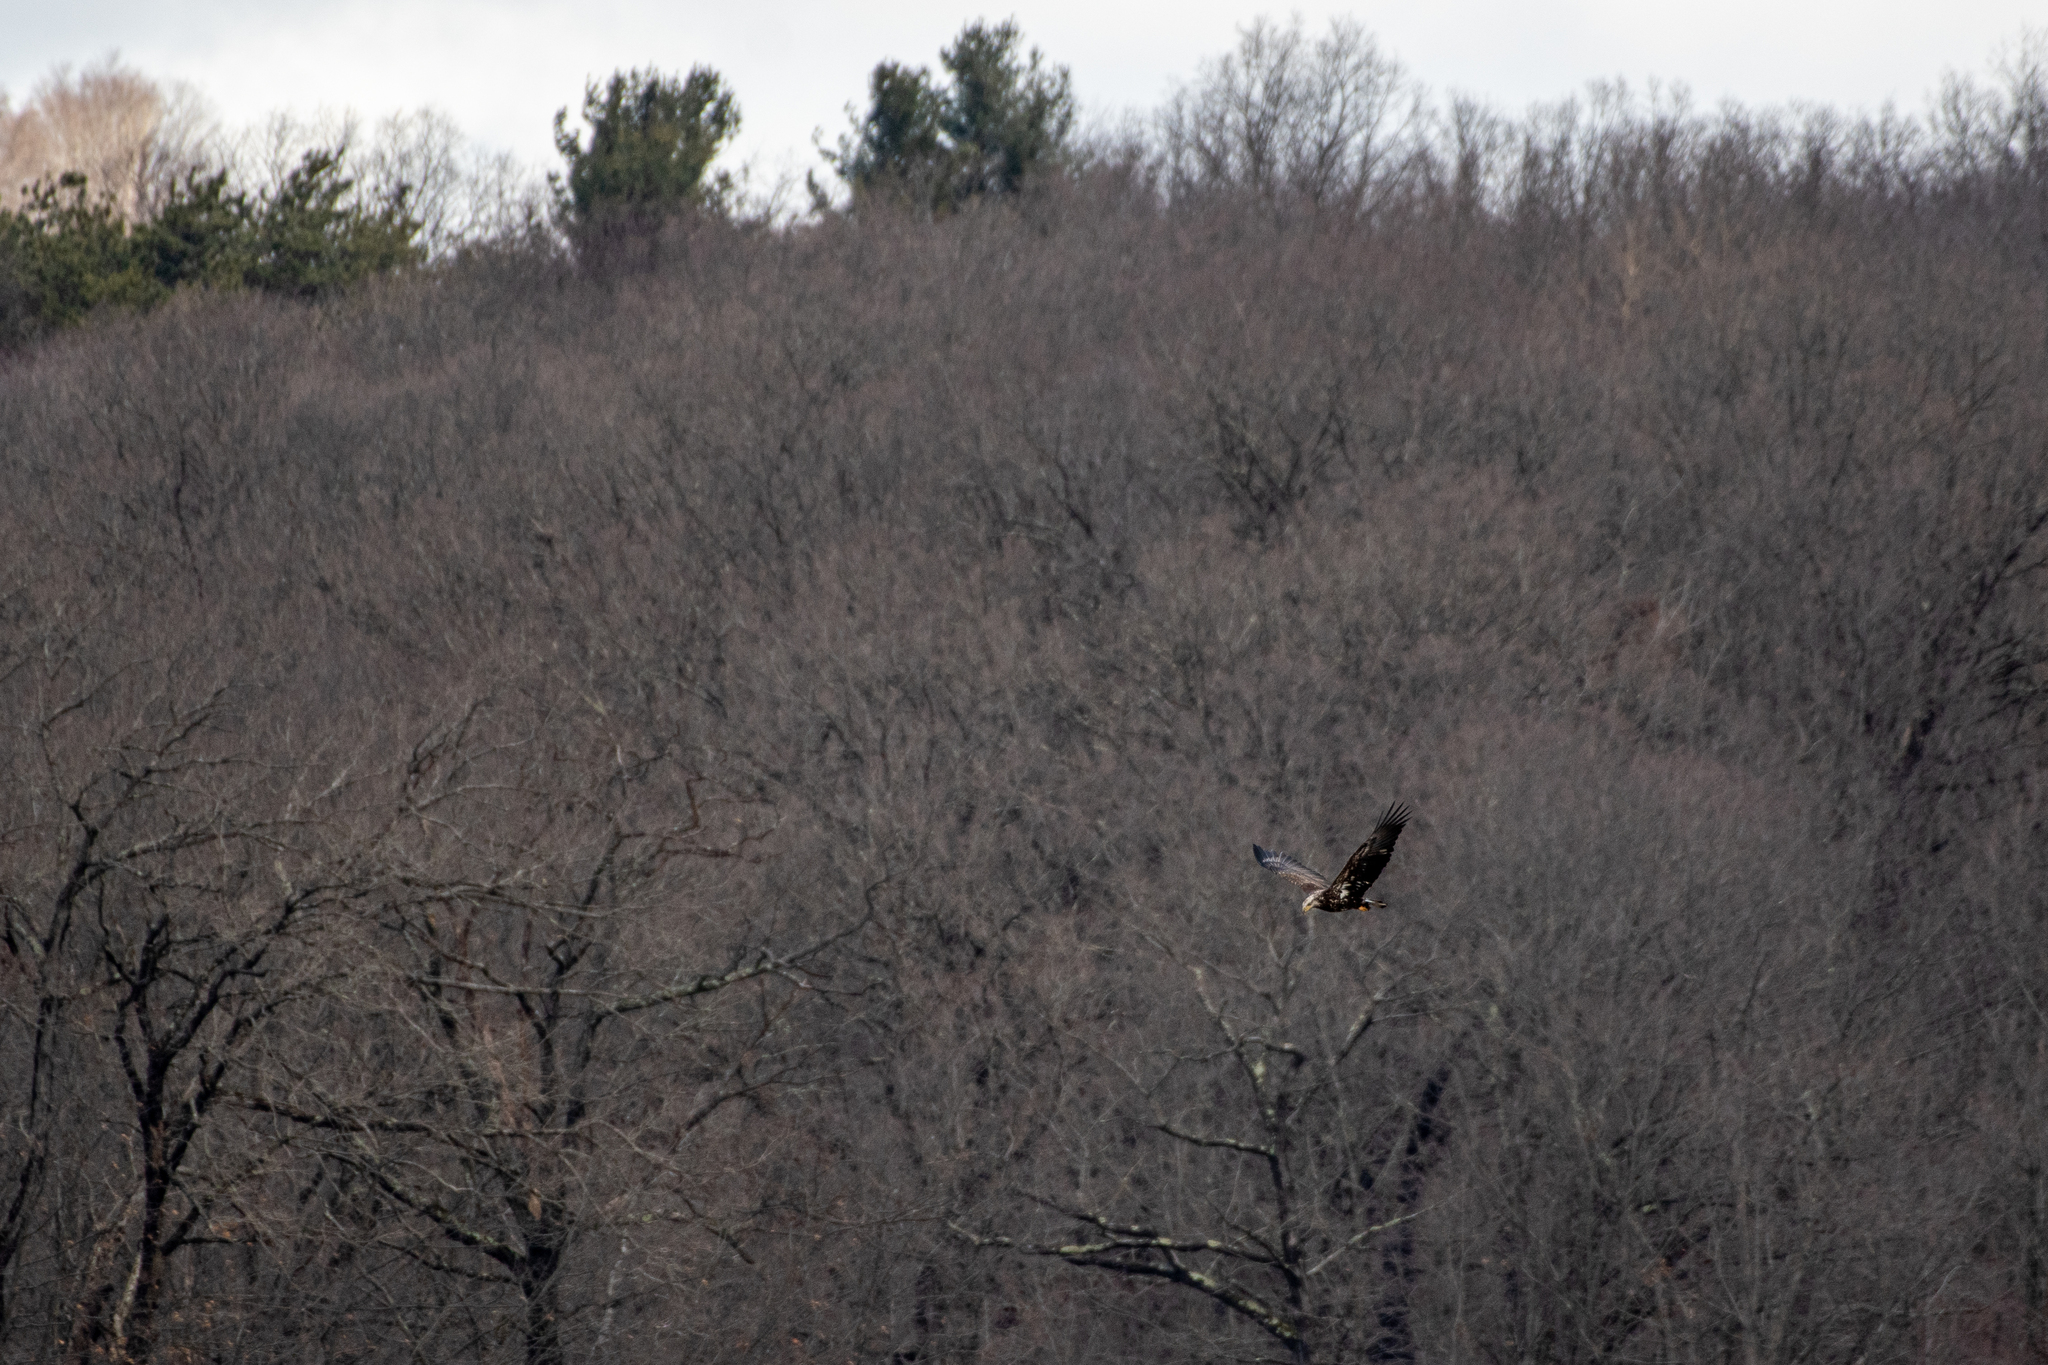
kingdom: Animalia
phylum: Chordata
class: Aves
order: Accipitriformes
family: Accipitridae
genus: Haliaeetus
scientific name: Haliaeetus leucocephalus
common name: Bald eagle
